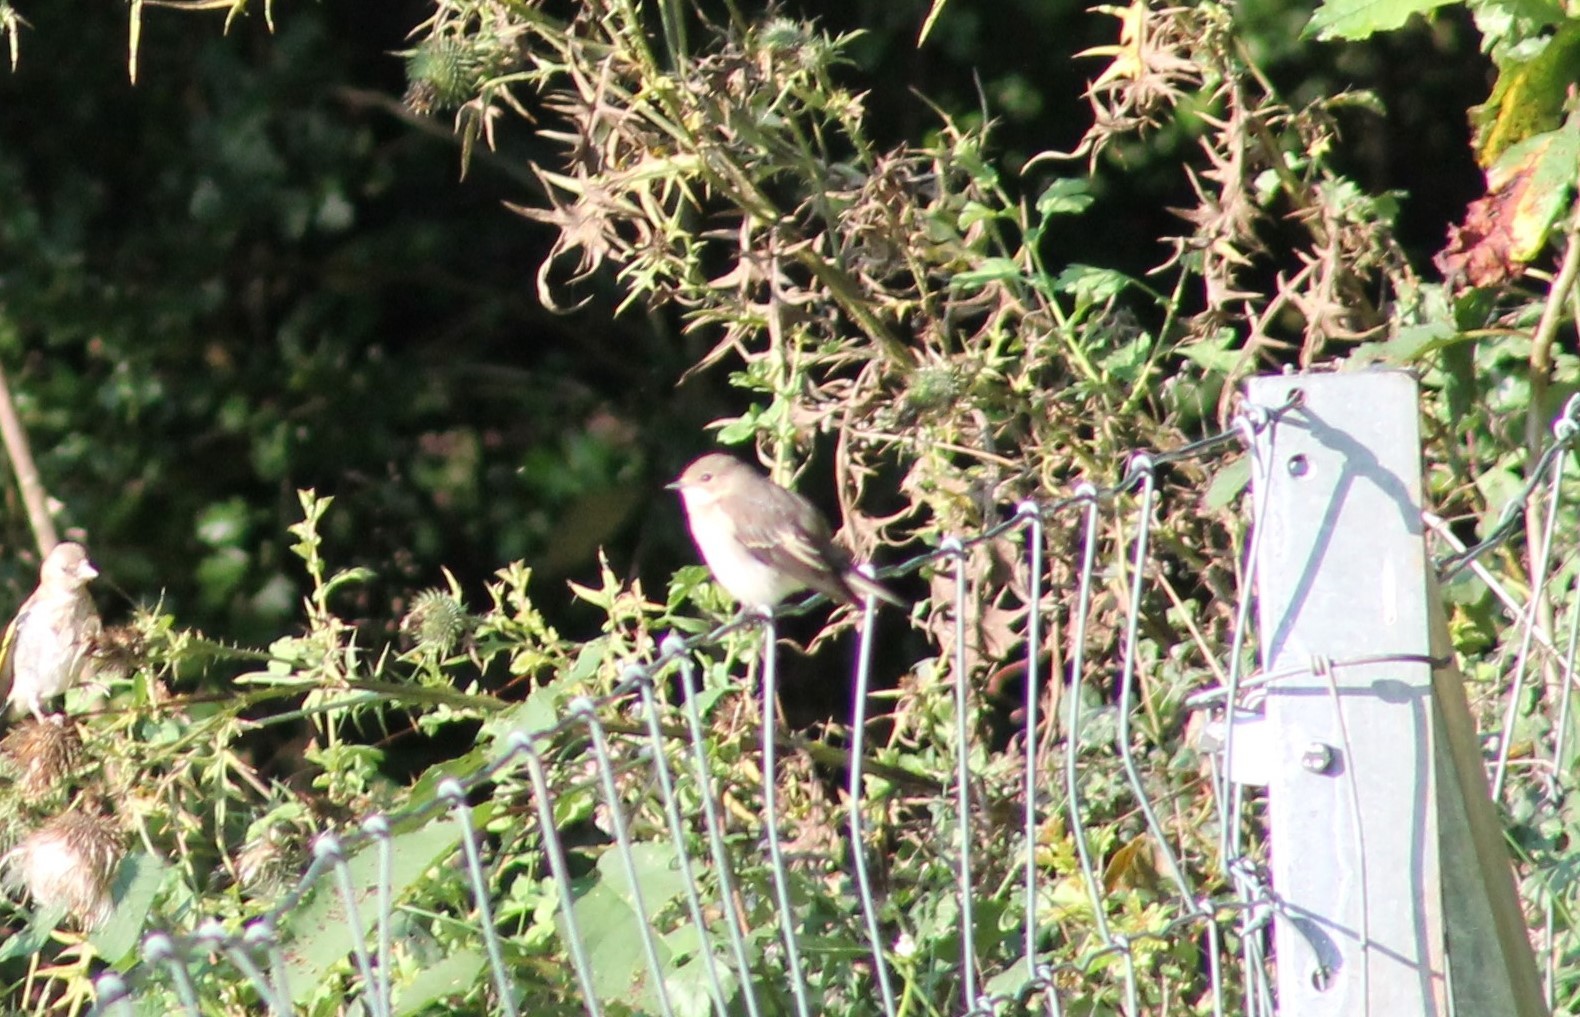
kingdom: Animalia
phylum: Chordata
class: Aves
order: Passeriformes
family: Muscicapidae
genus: Ficedula
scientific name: Ficedula hypoleuca
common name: European pied flycatcher
